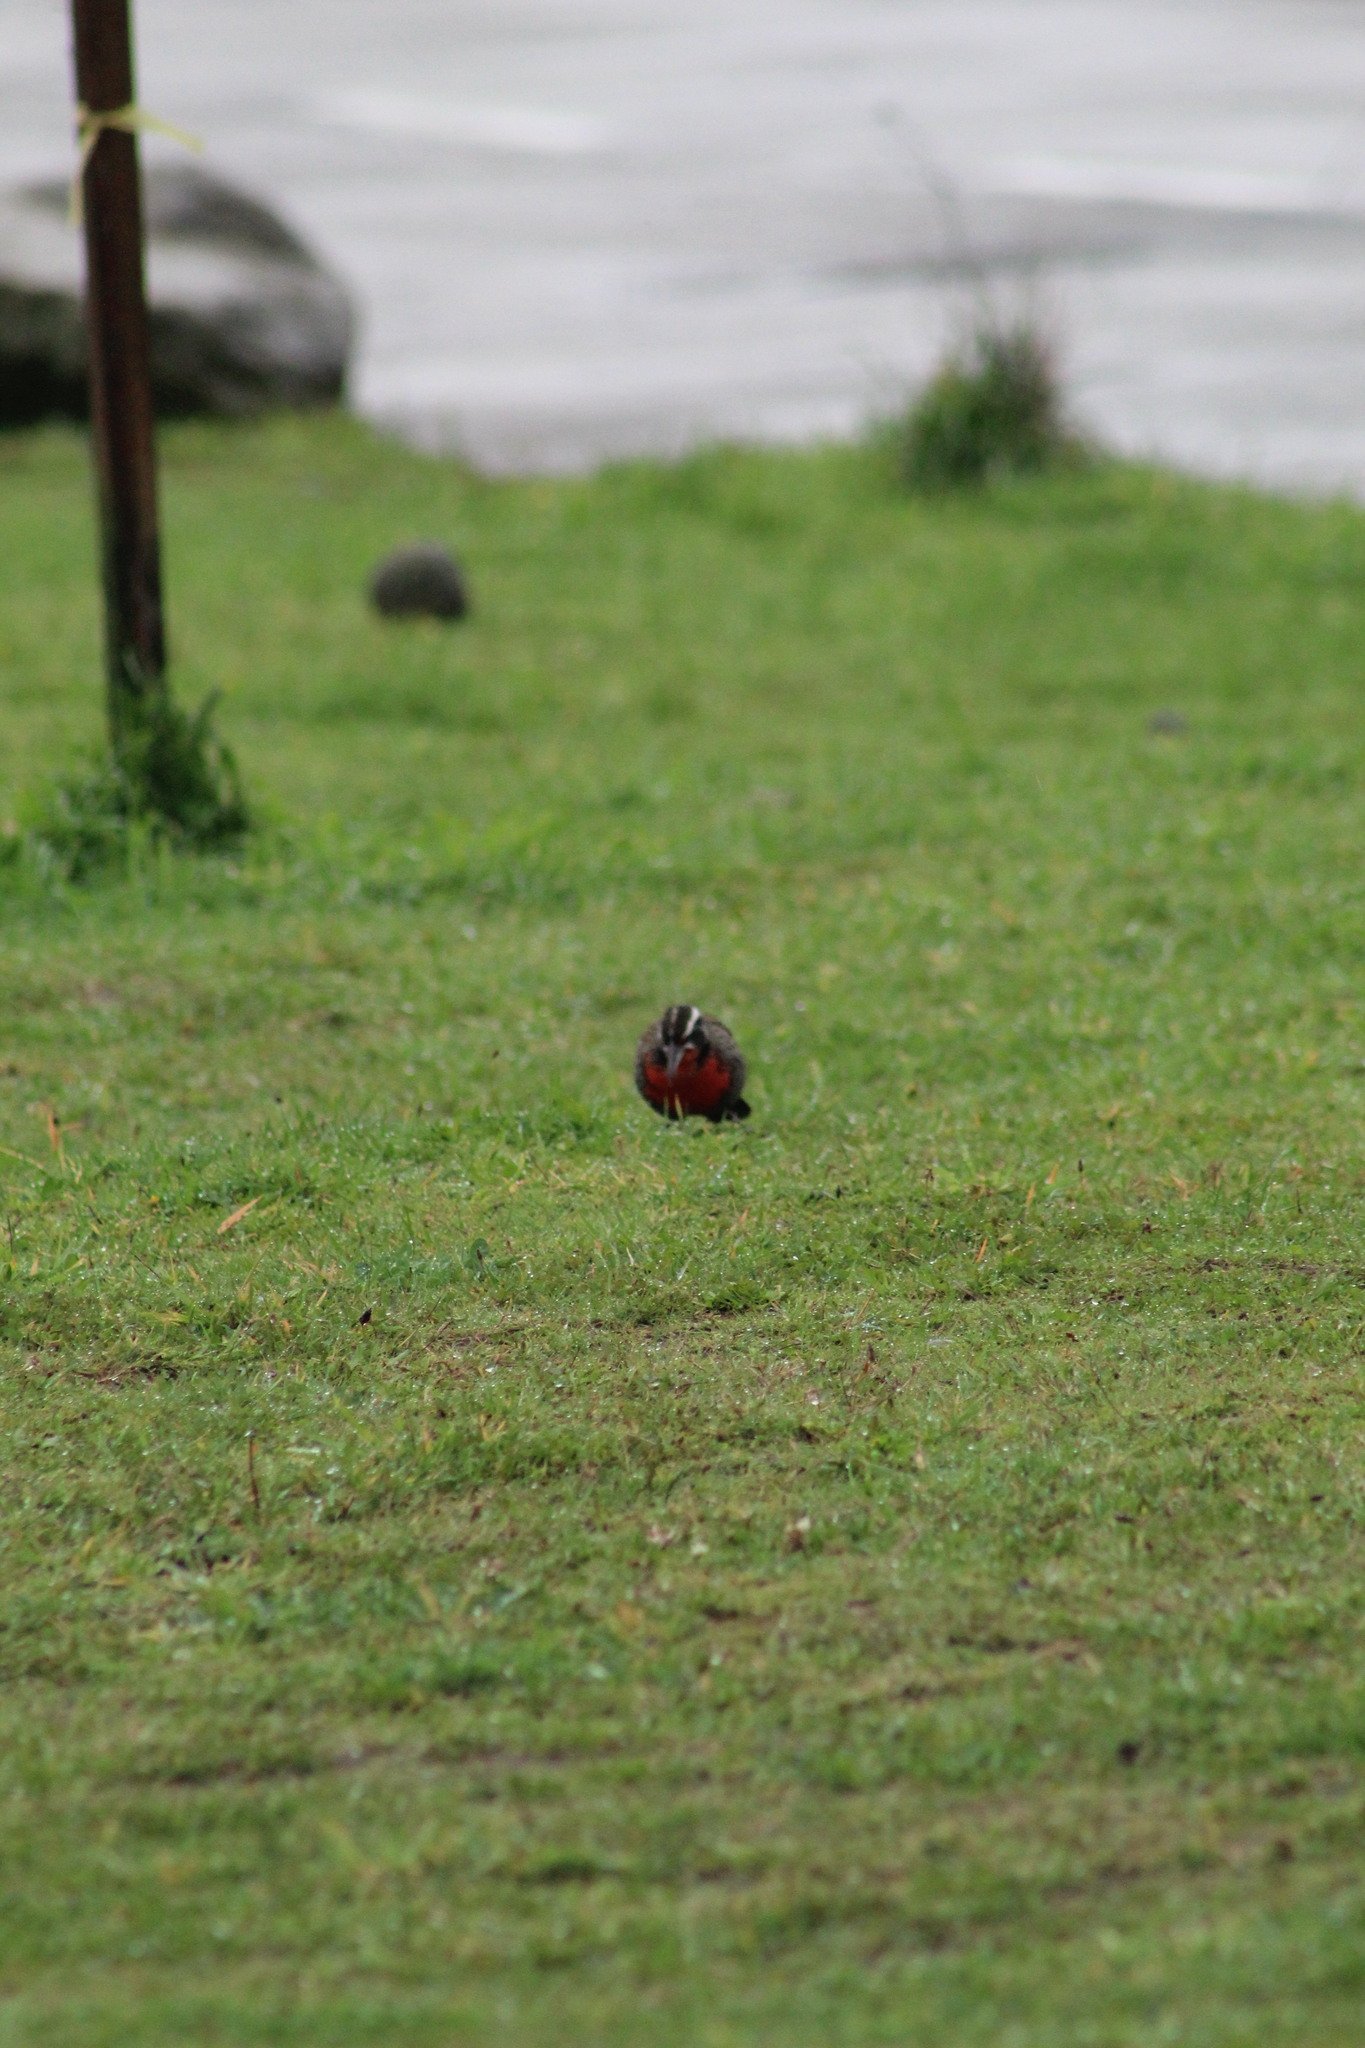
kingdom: Animalia
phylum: Chordata
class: Aves
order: Passeriformes
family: Icteridae
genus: Sturnella
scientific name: Sturnella loyca
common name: Long-tailed meadowlark
